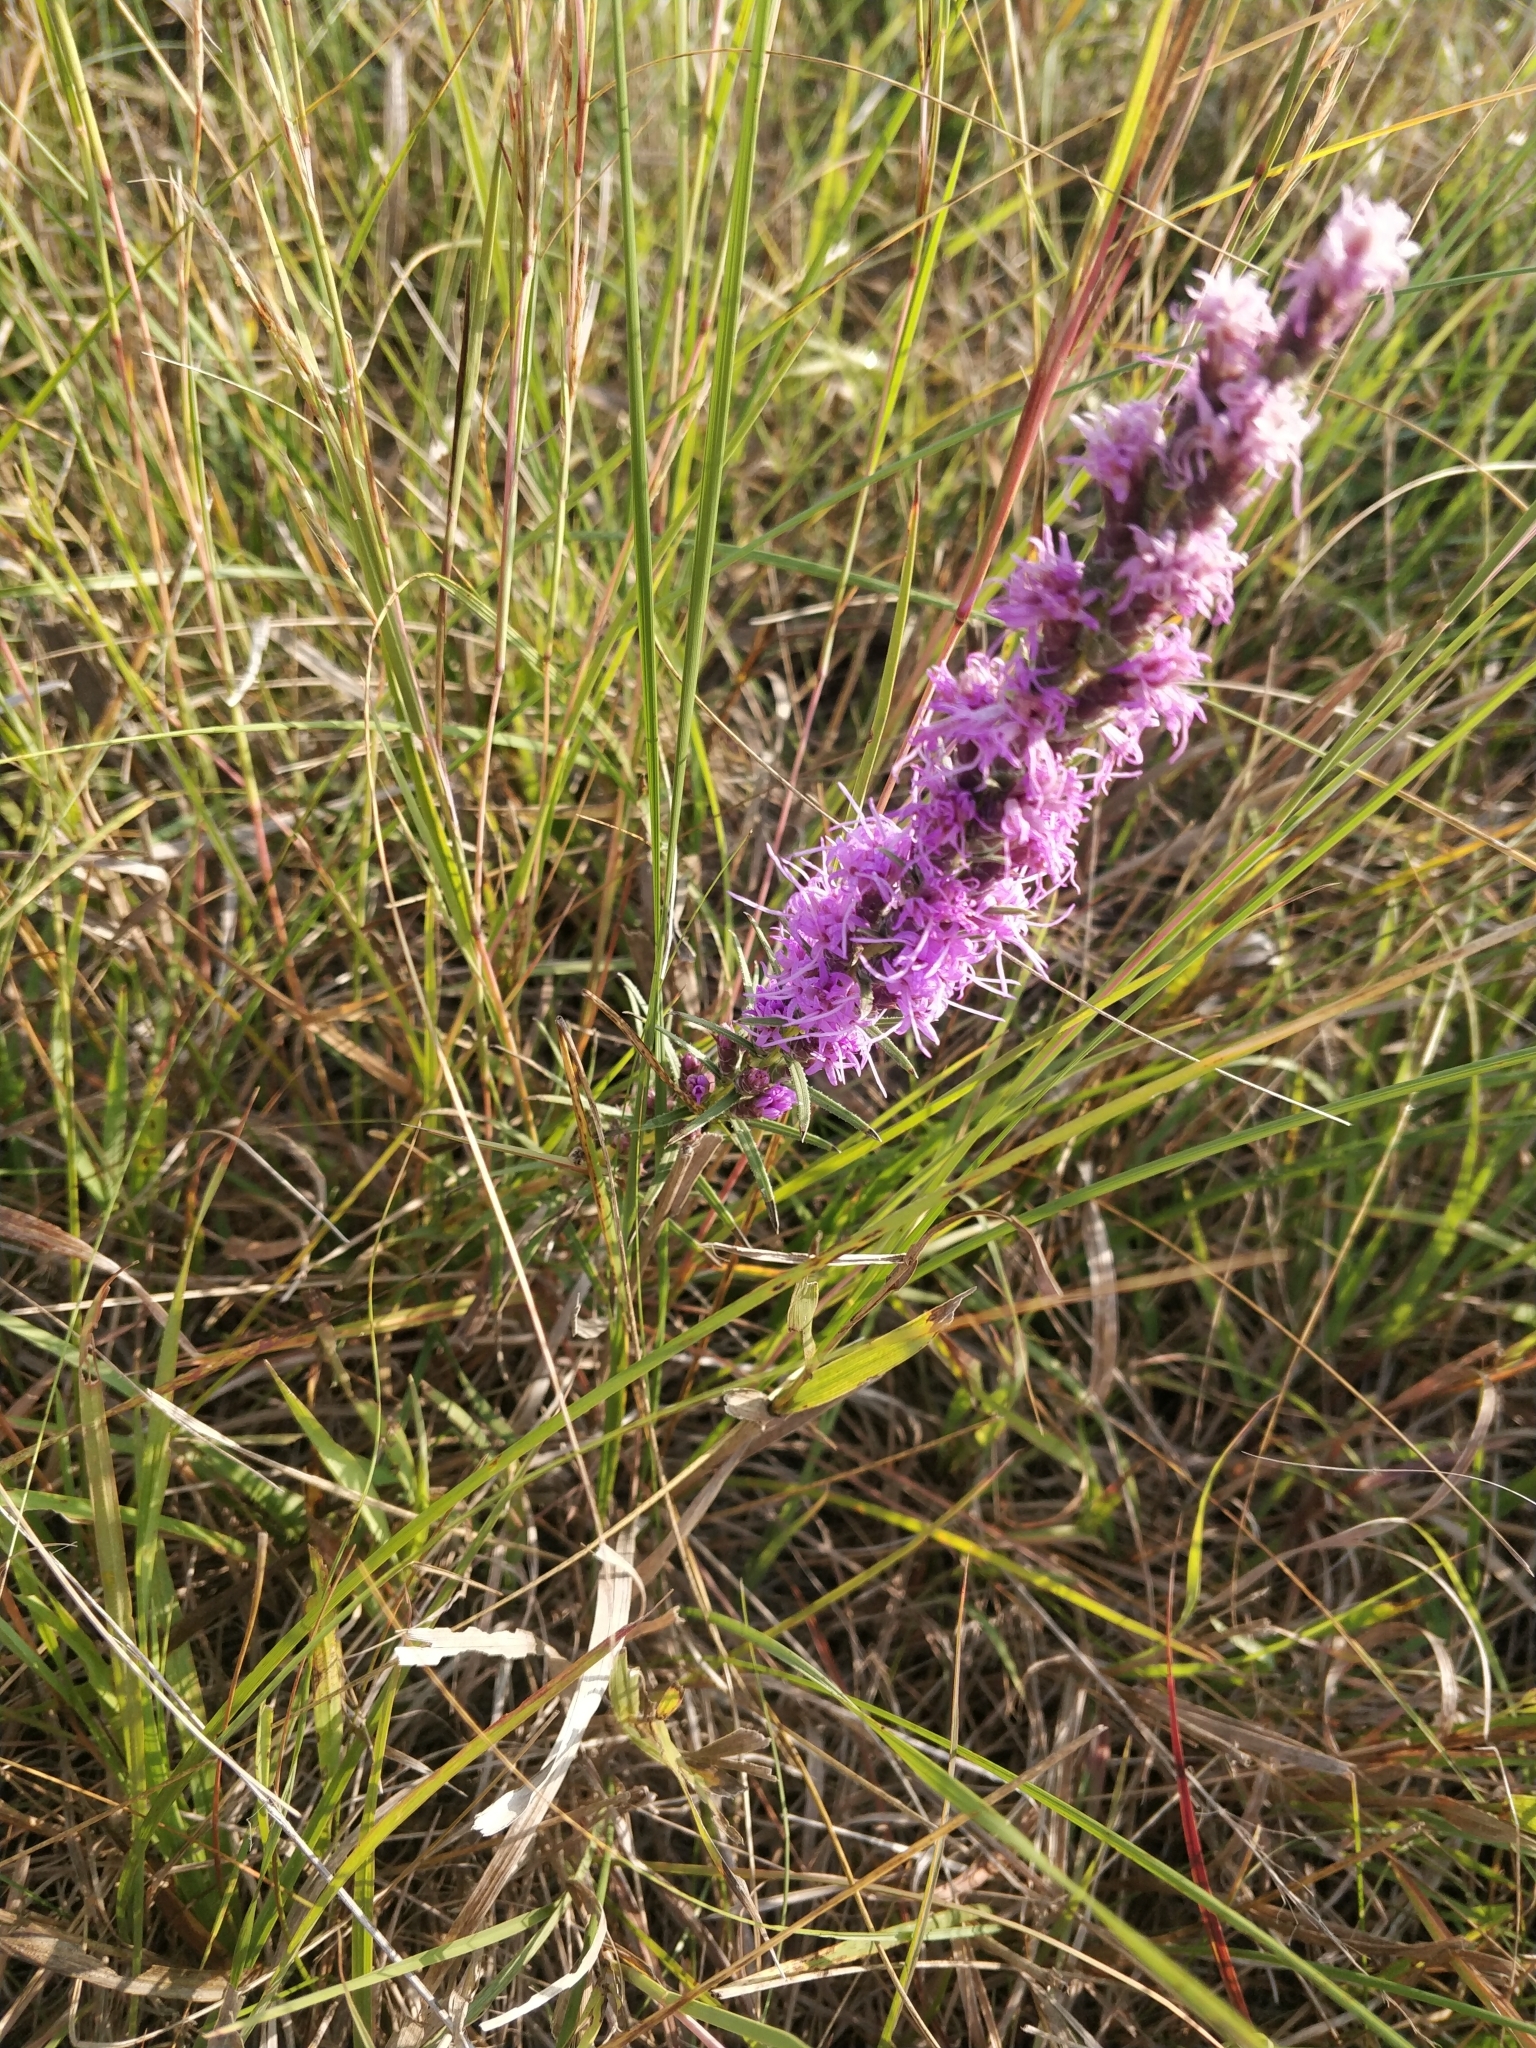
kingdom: Plantae
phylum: Tracheophyta
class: Magnoliopsida
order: Asterales
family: Asteraceae
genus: Liatris
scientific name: Liatris punctata
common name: Dotted gayfeather
